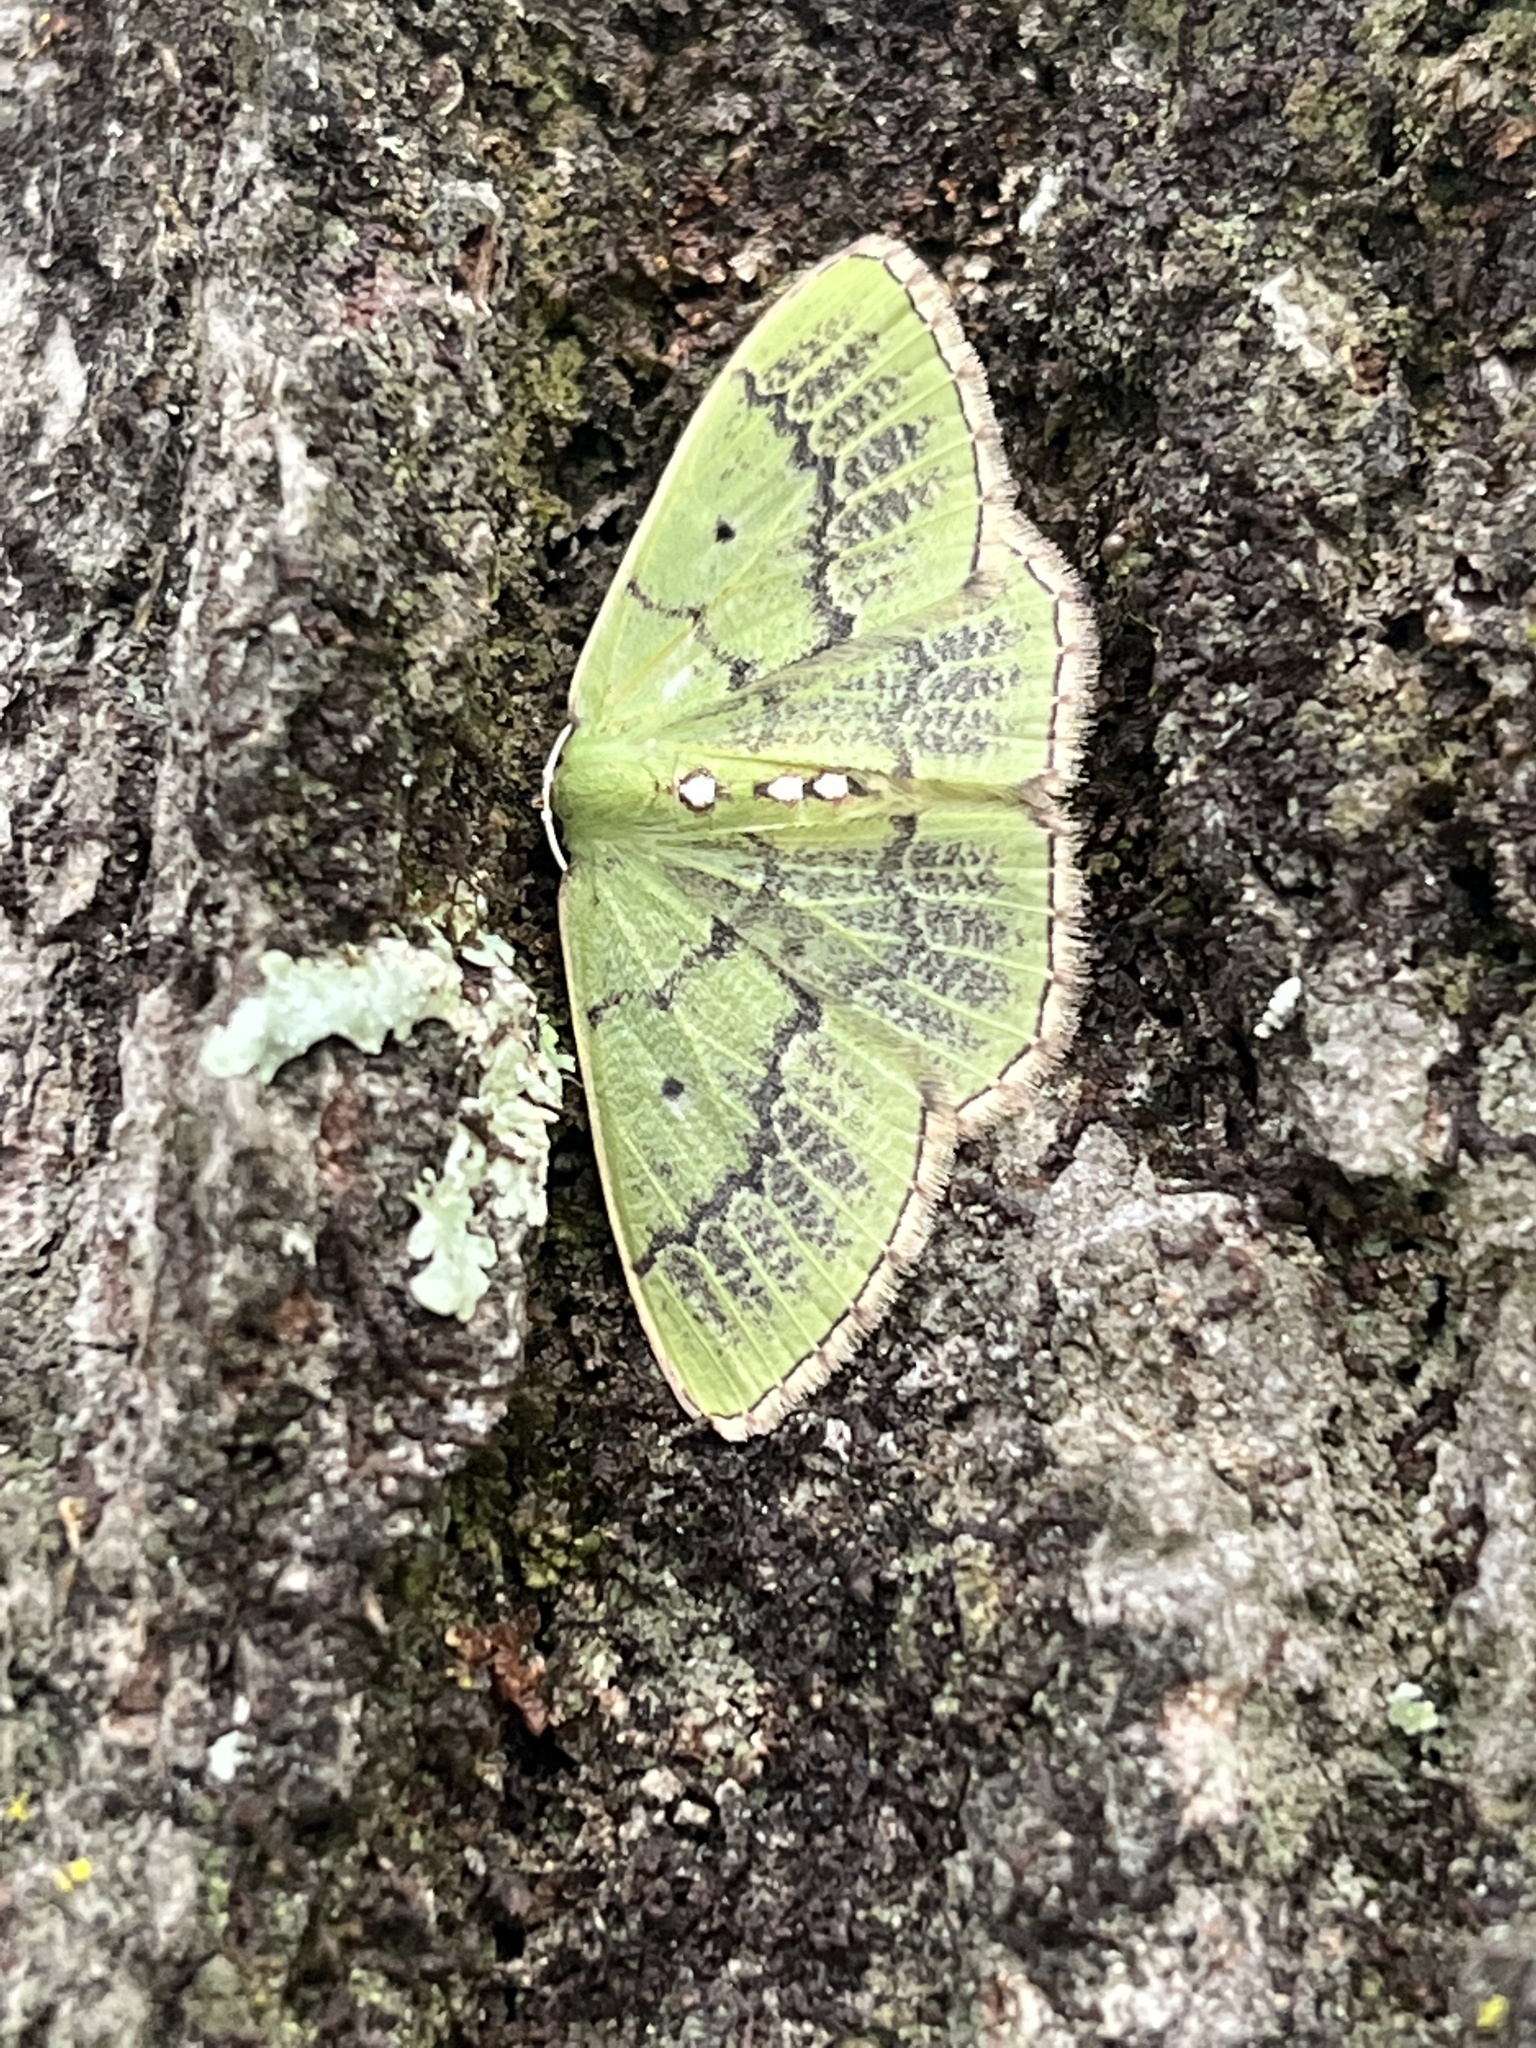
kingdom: Animalia
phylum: Arthropoda
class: Insecta
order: Lepidoptera
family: Geometridae
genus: Nemoria
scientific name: Nemoria lixaria
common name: Red-bordered emerald
